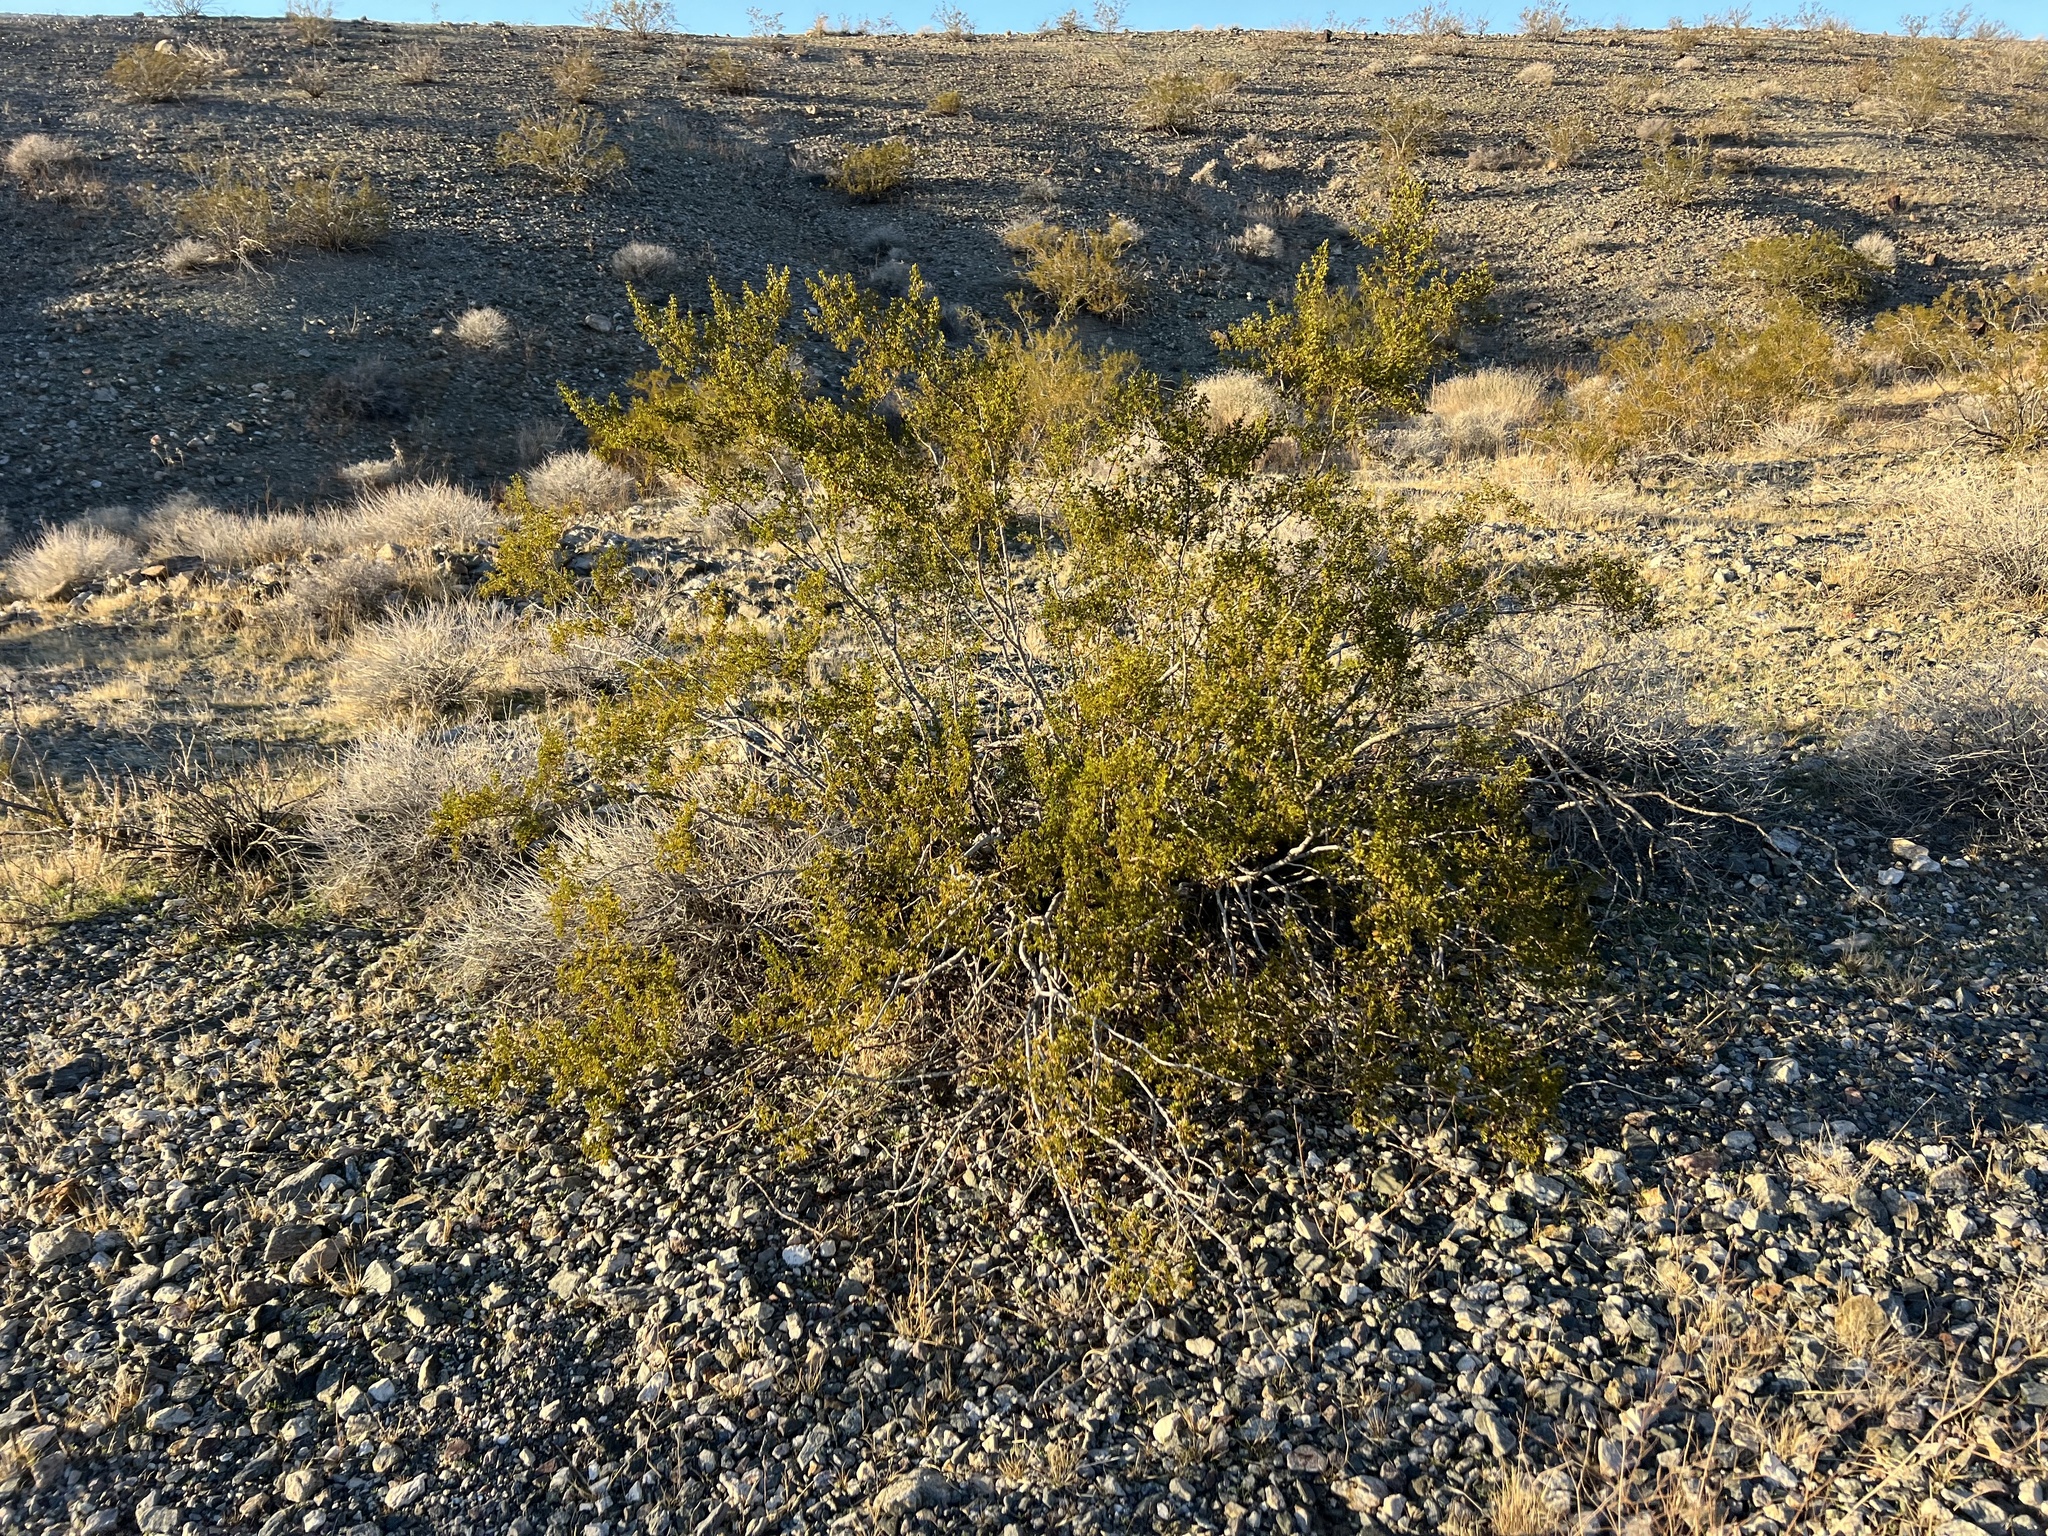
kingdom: Plantae
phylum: Tracheophyta
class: Magnoliopsida
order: Zygophyllales
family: Zygophyllaceae
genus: Larrea
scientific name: Larrea tridentata
